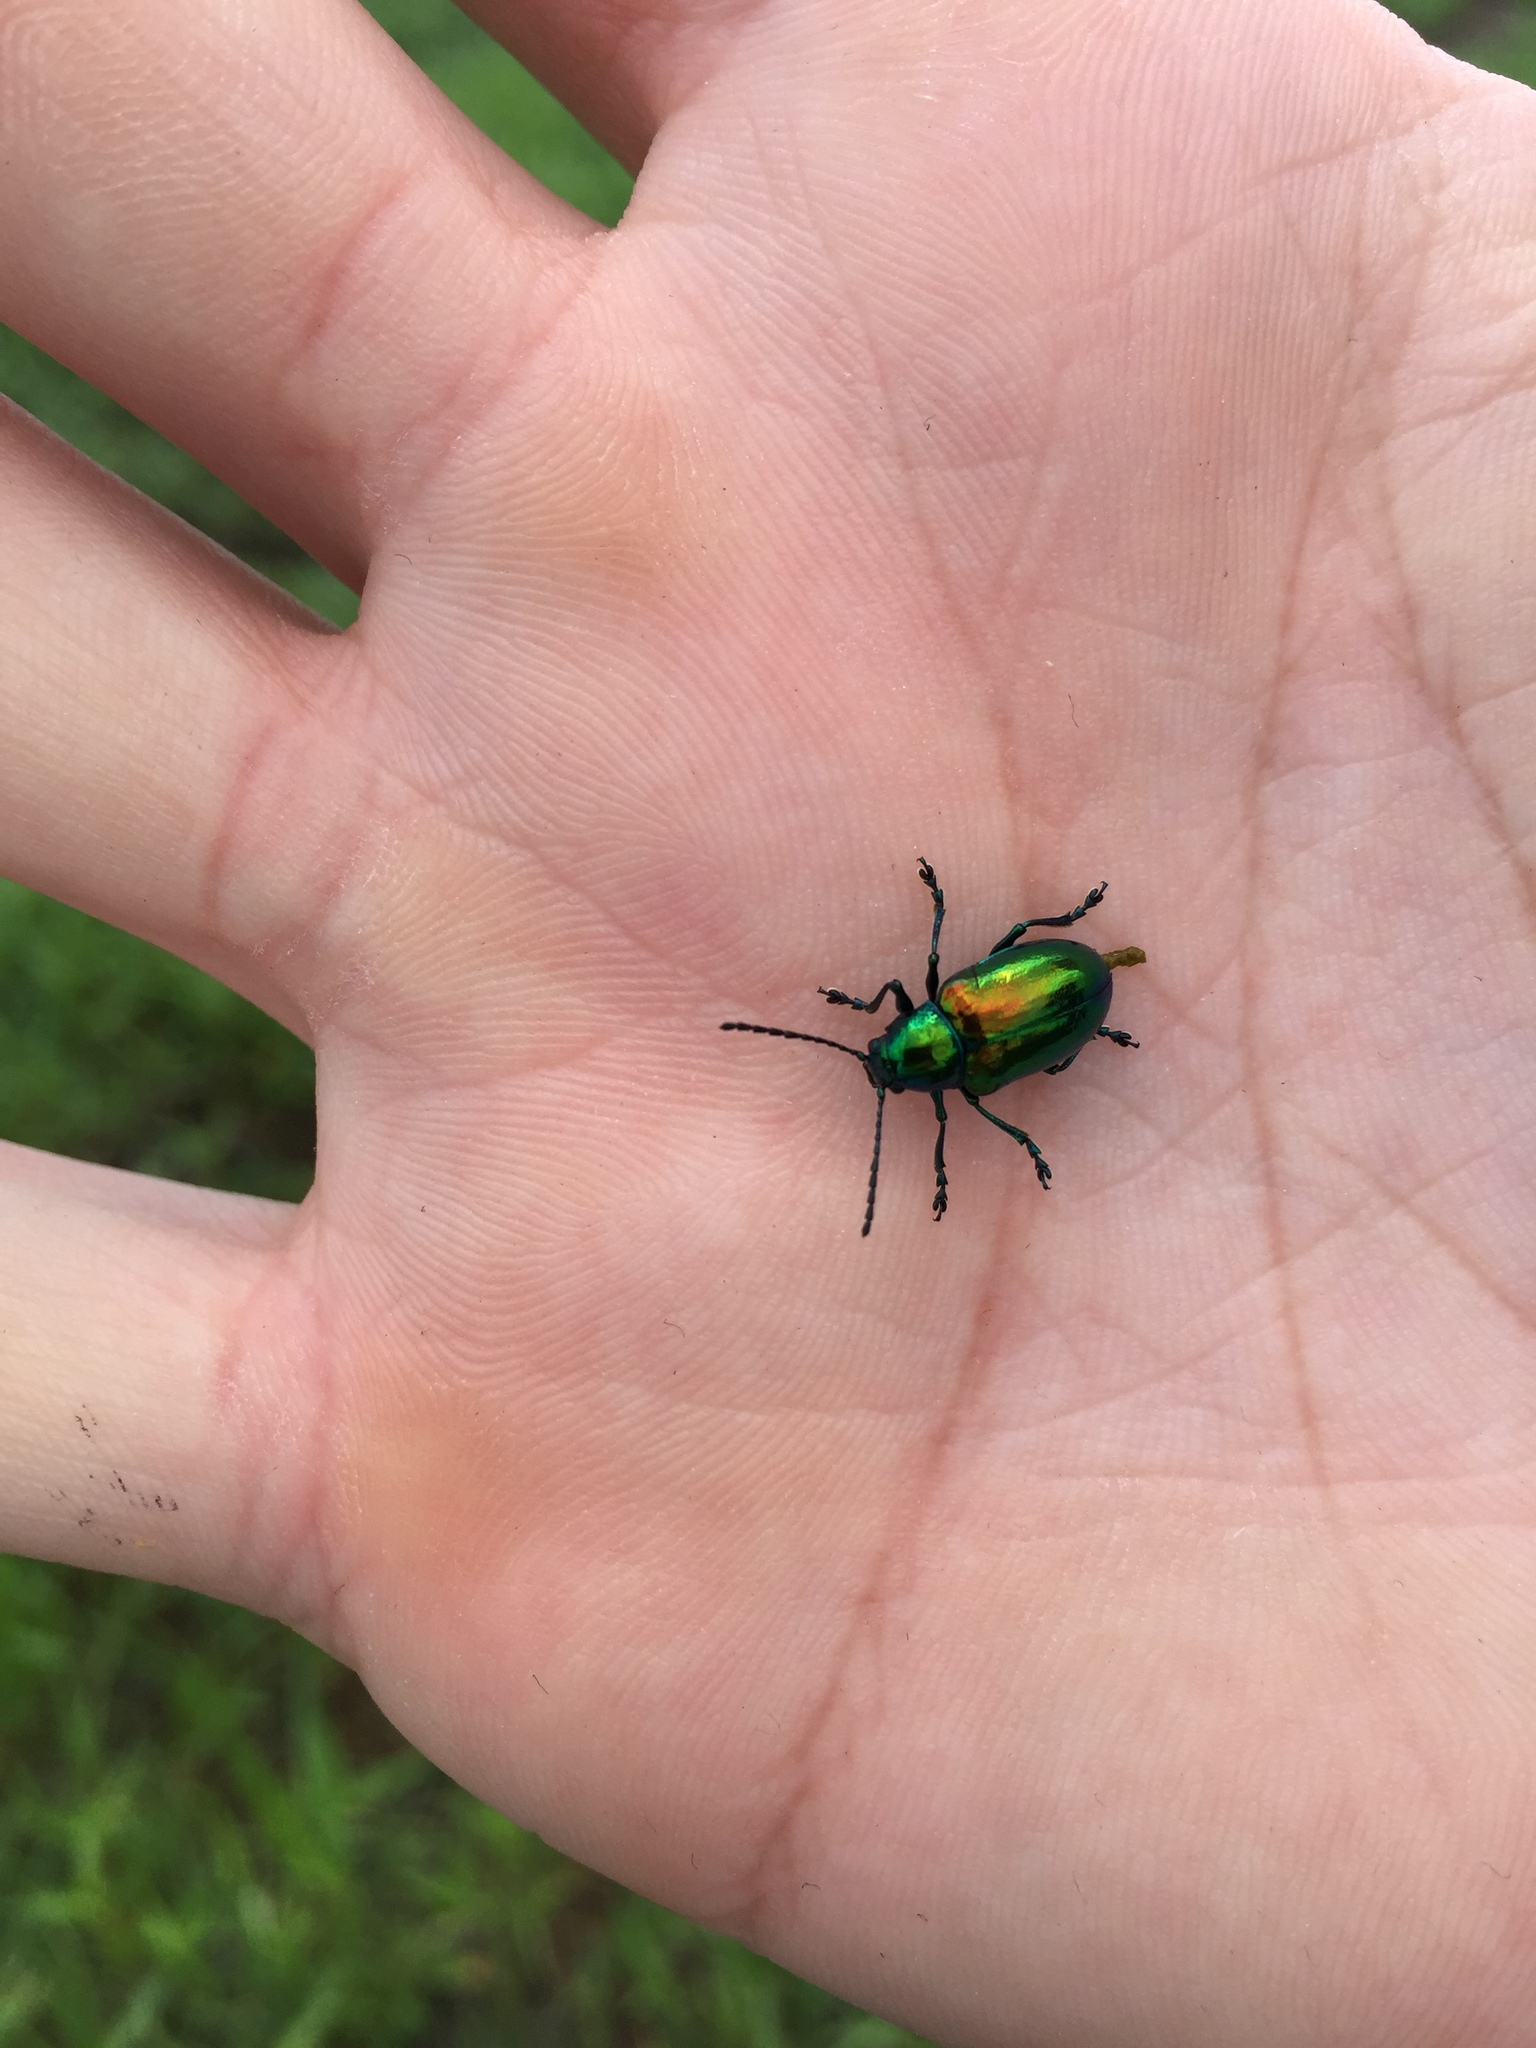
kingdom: Animalia
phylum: Arthropoda
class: Insecta
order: Coleoptera
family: Chrysomelidae
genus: Chrysochus
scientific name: Chrysochus auratus
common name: Dogbane leaf beetle
